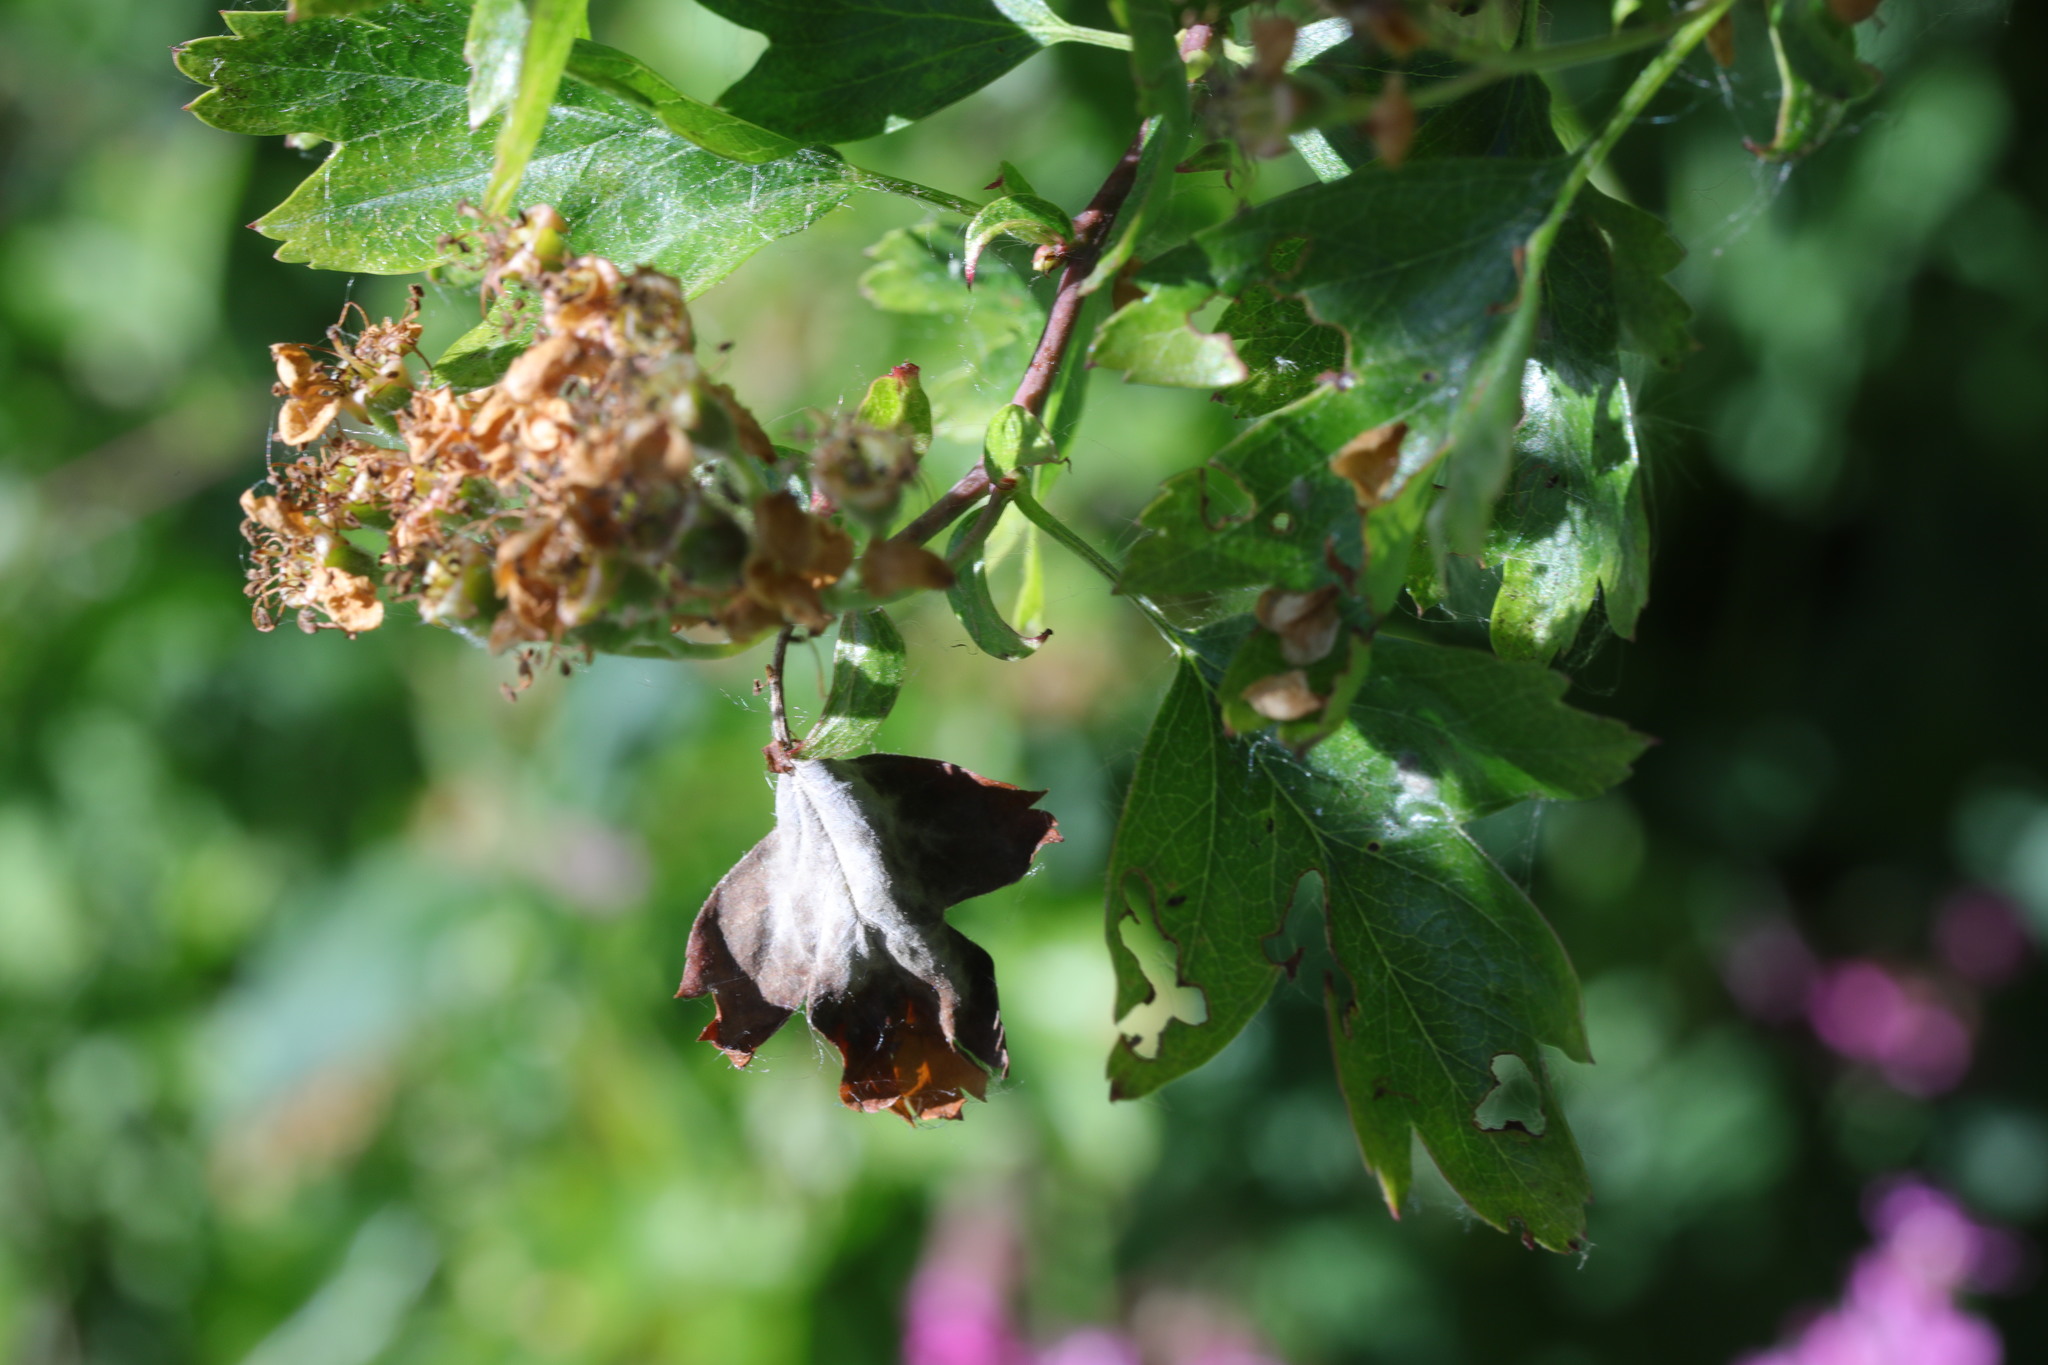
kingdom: Fungi
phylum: Ascomycota
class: Leotiomycetes
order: Helotiales
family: Sclerotiniaceae
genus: Monilinia
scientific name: Monilinia johnsonii
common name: Haw goblet
